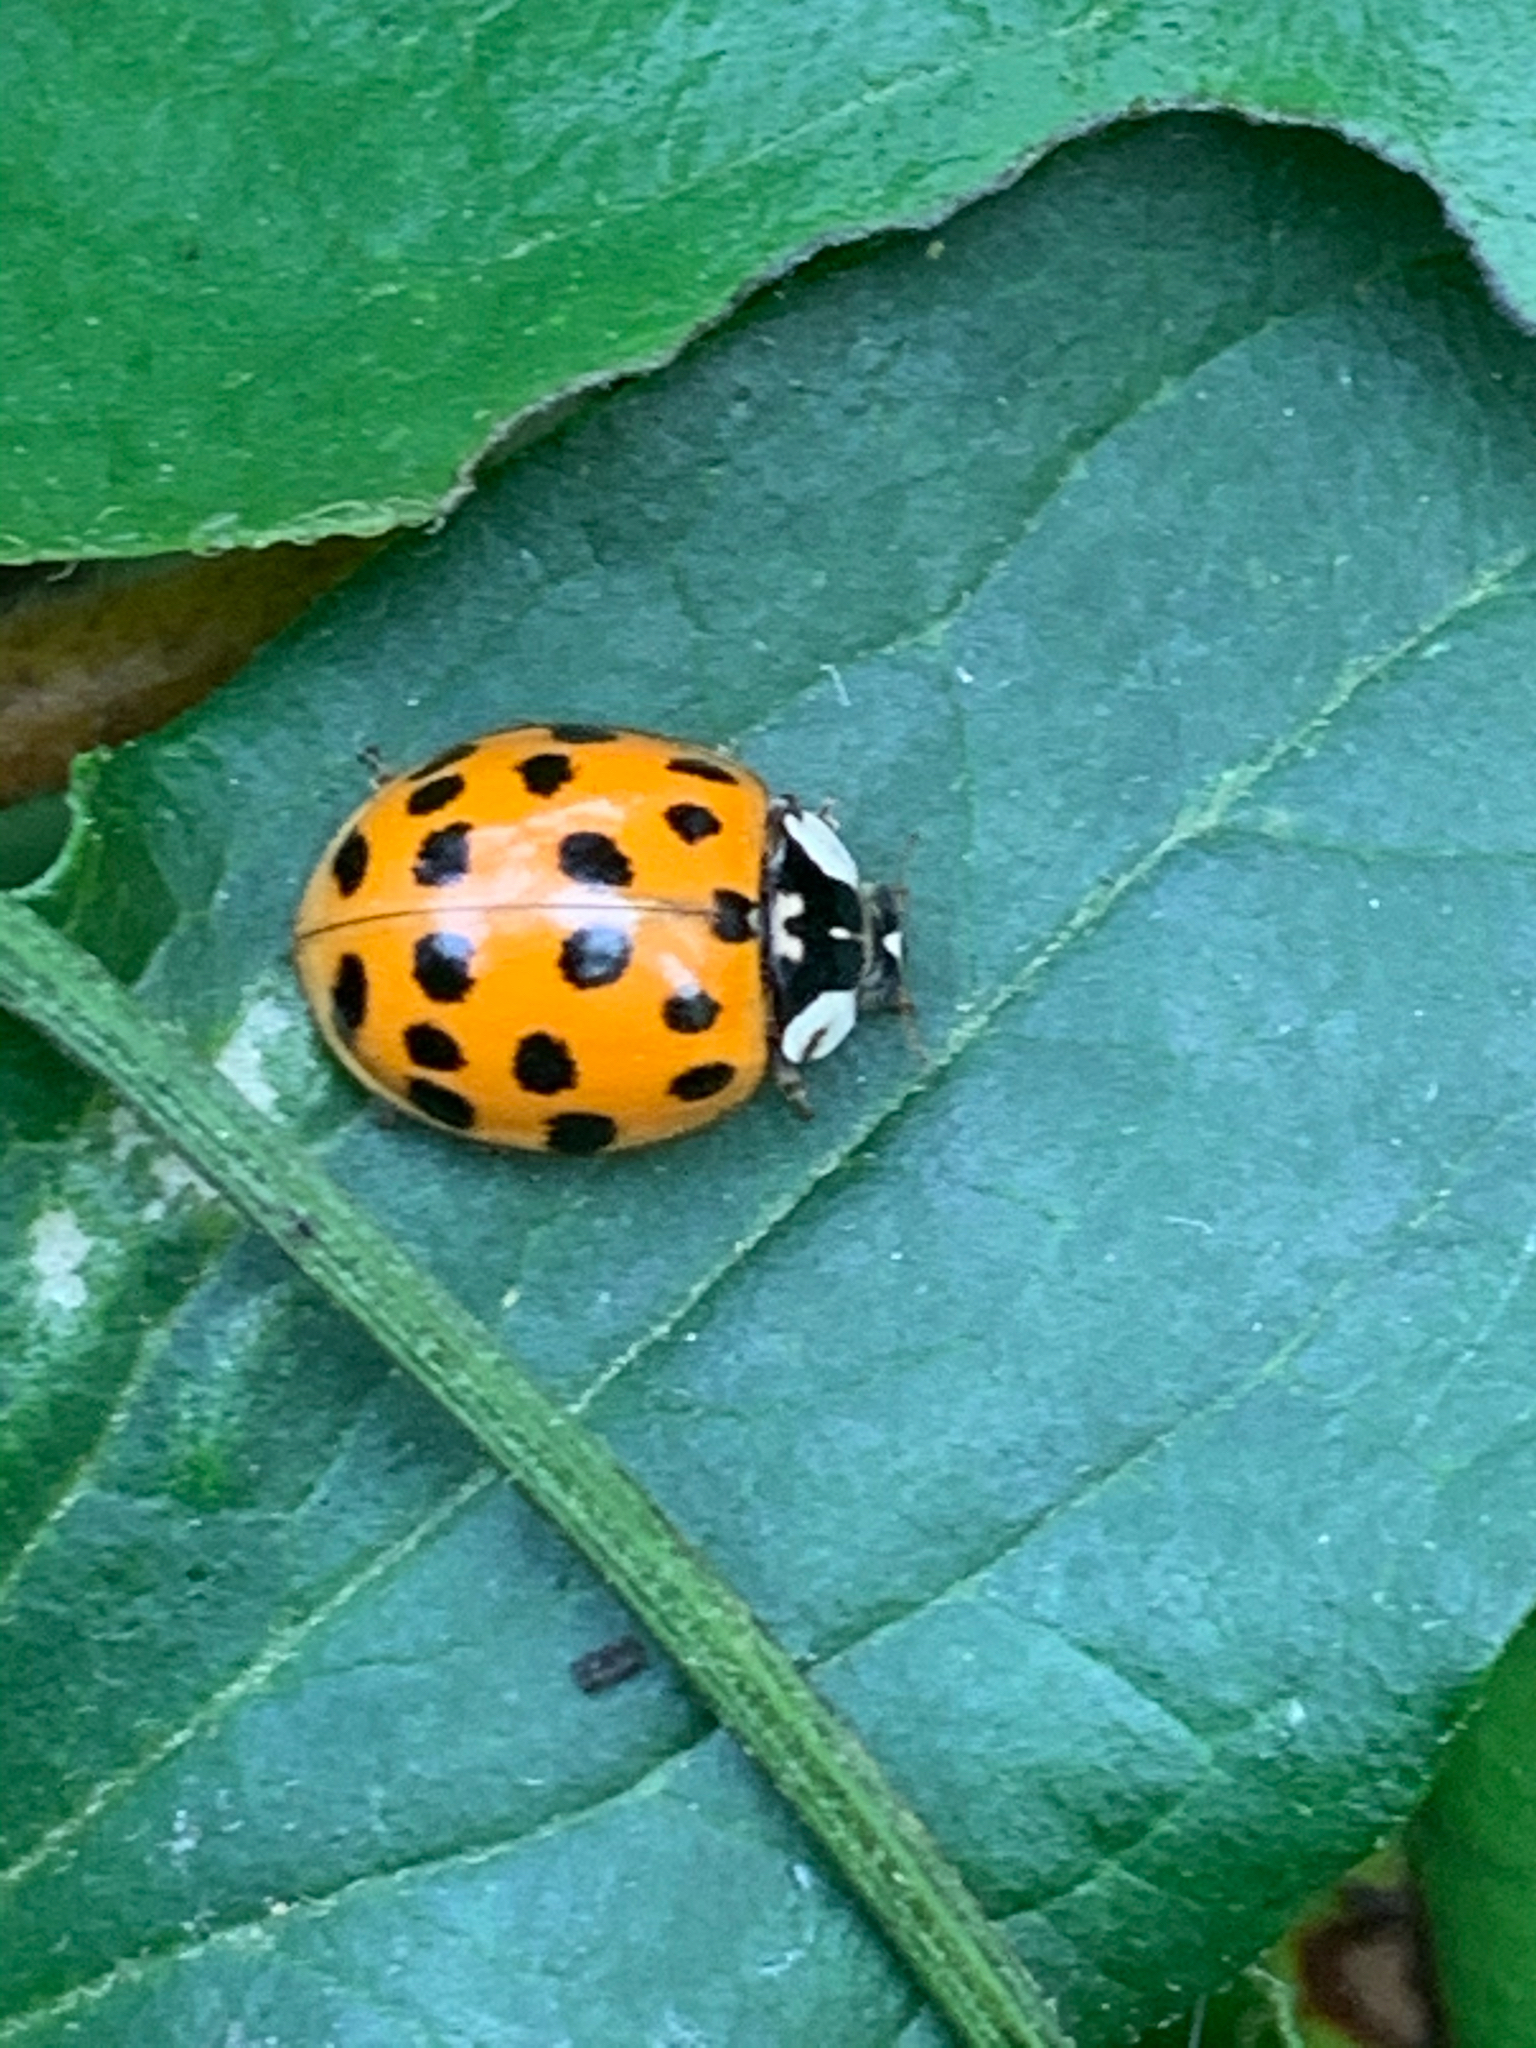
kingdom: Animalia
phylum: Arthropoda
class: Insecta
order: Coleoptera
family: Coccinellidae
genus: Harmonia
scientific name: Harmonia axyridis
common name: Harlequin ladybird
